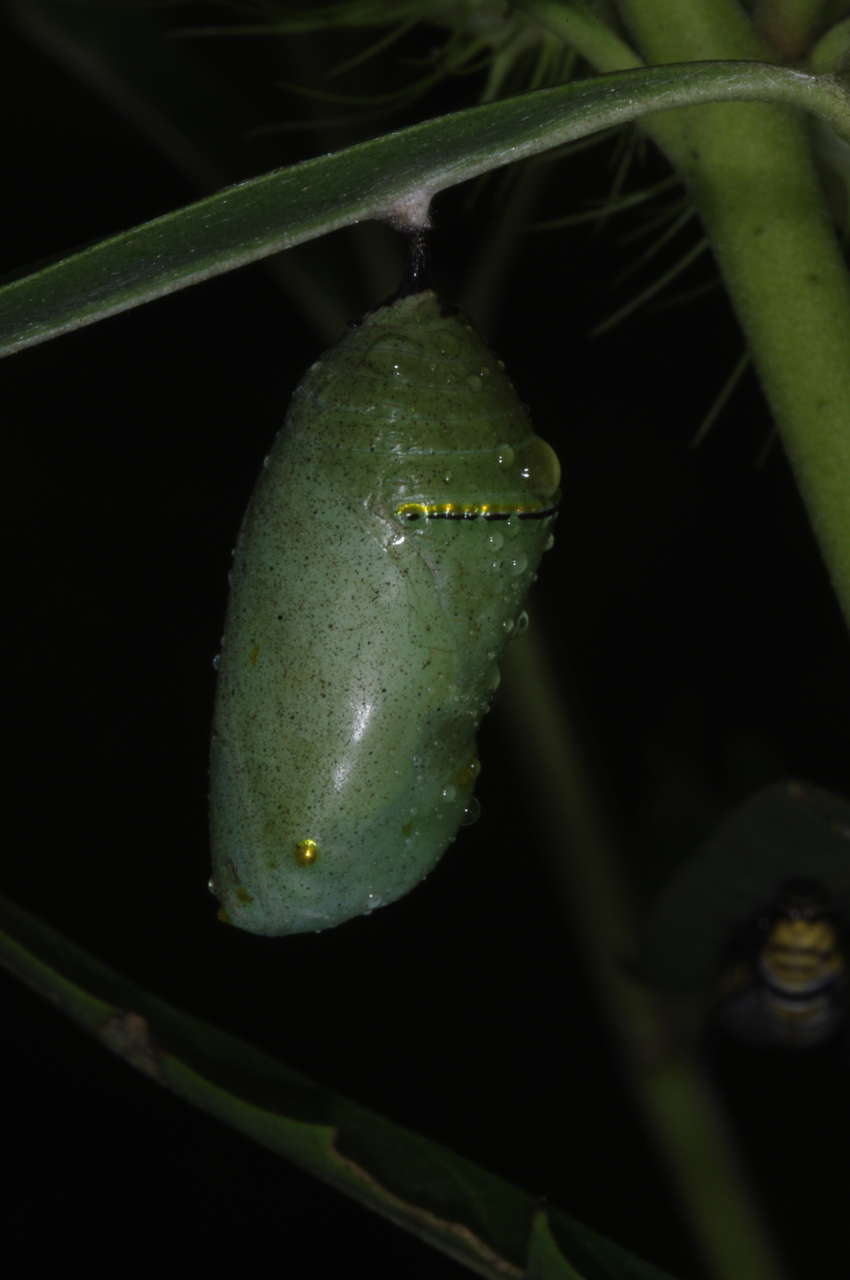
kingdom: Animalia
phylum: Arthropoda
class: Insecta
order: Lepidoptera
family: Nymphalidae
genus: Danaus
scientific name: Danaus plexippus
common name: Monarch
